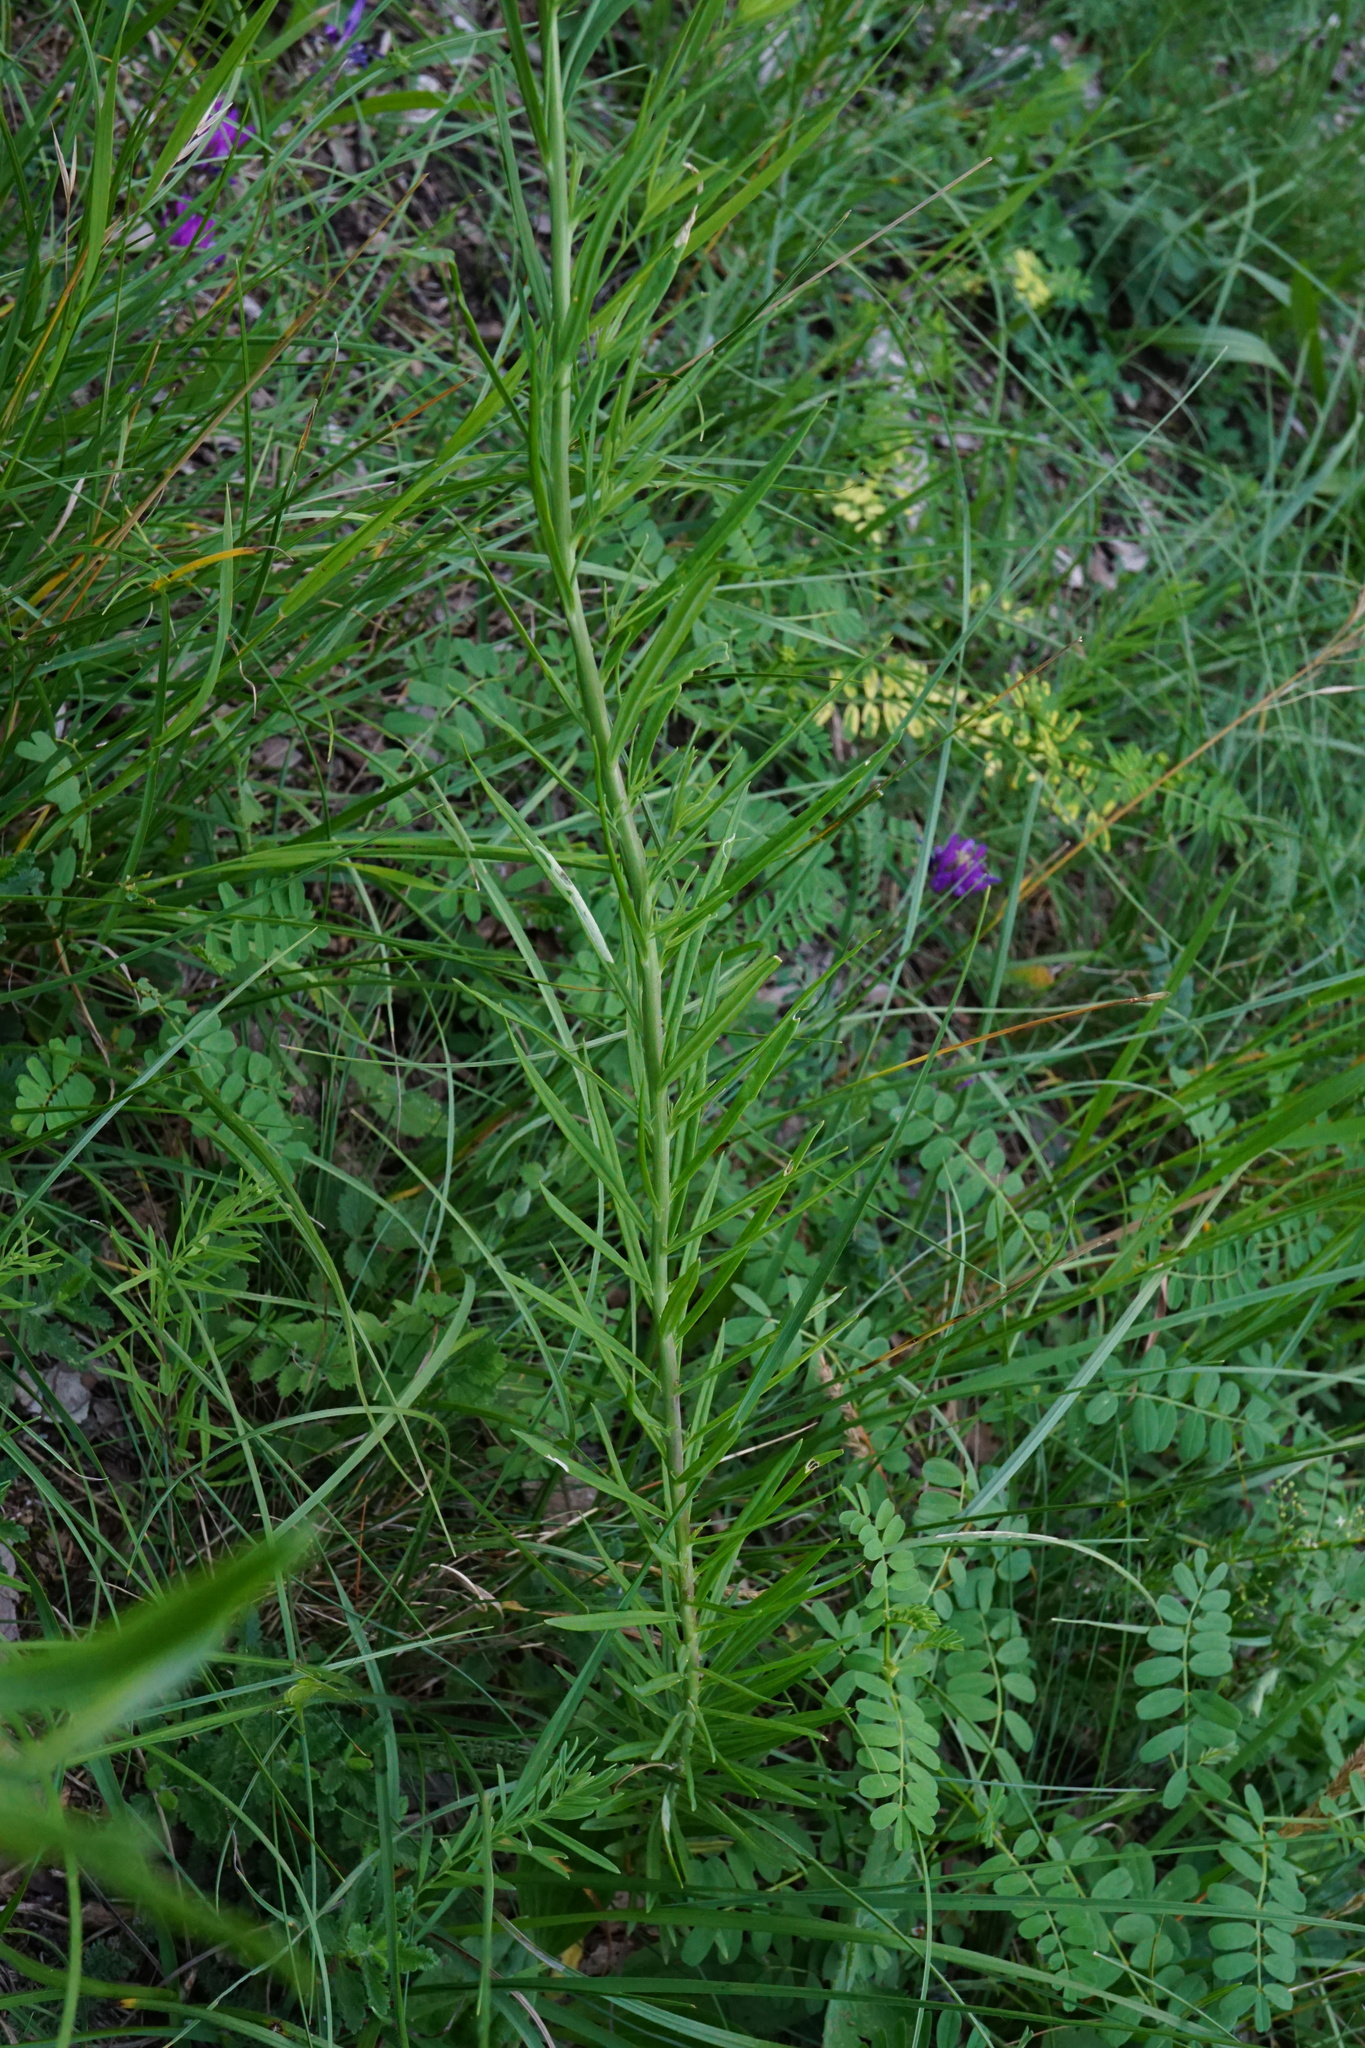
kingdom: Plantae
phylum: Tracheophyta
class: Magnoliopsida
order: Lamiales
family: Plantaginaceae
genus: Linaria
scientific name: Linaria vulgaris
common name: Butter and eggs
